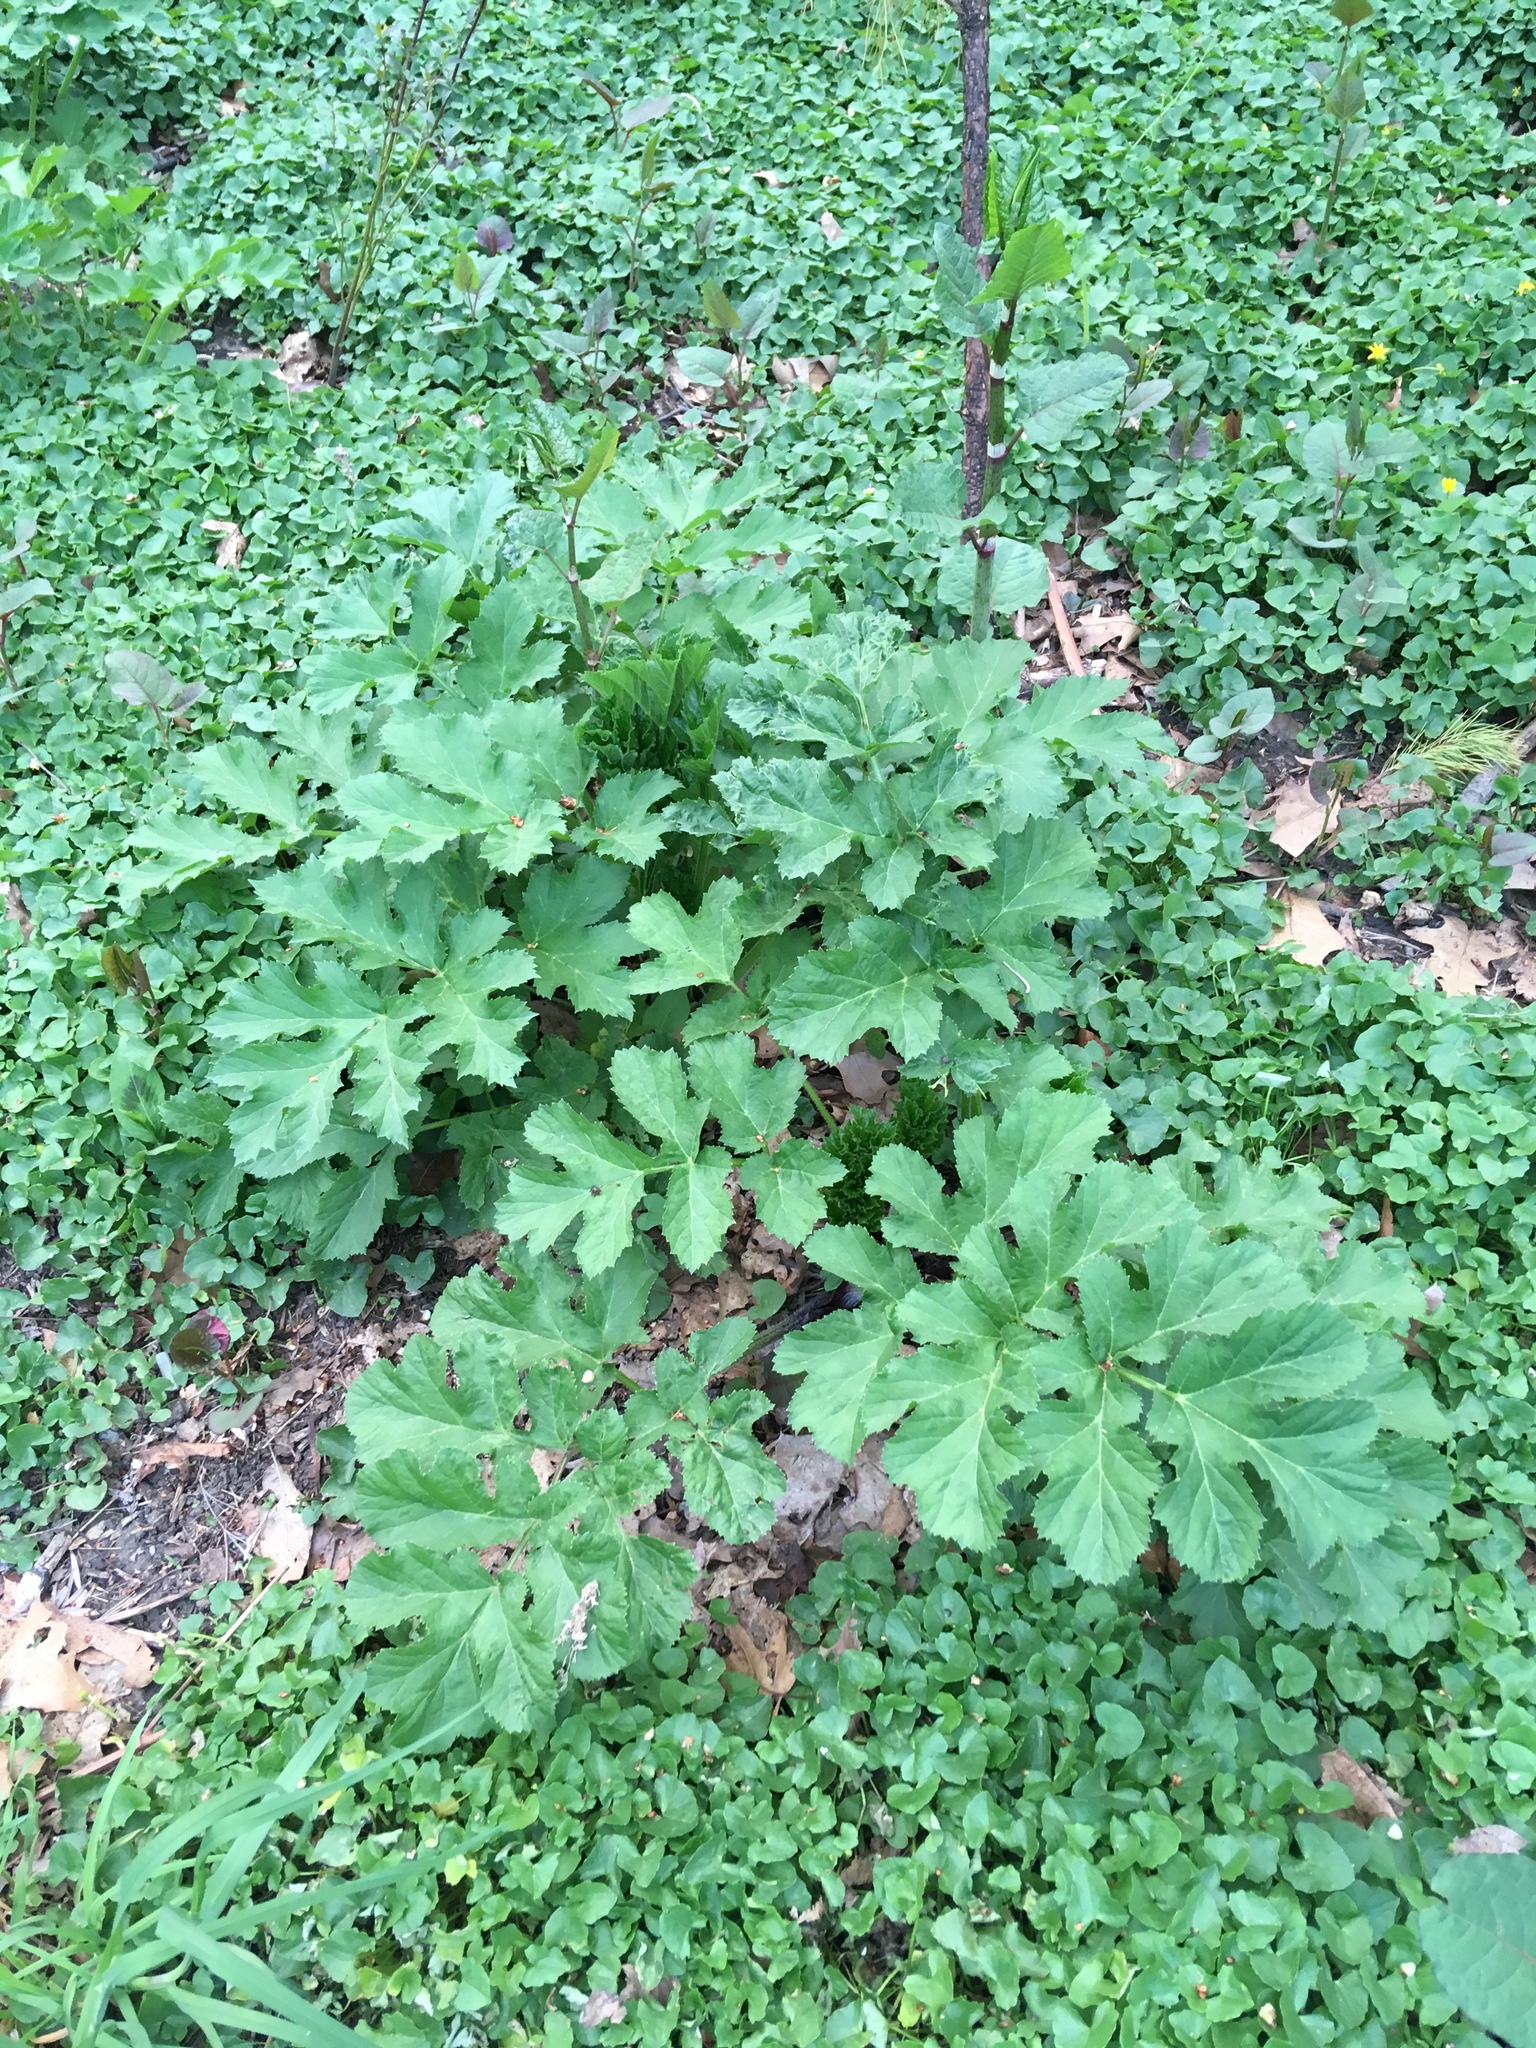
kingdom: Plantae
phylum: Tracheophyta
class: Magnoliopsida
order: Apiales
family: Apiaceae
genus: Pastinaca
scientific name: Pastinaca sativa
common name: Wild parsnip
